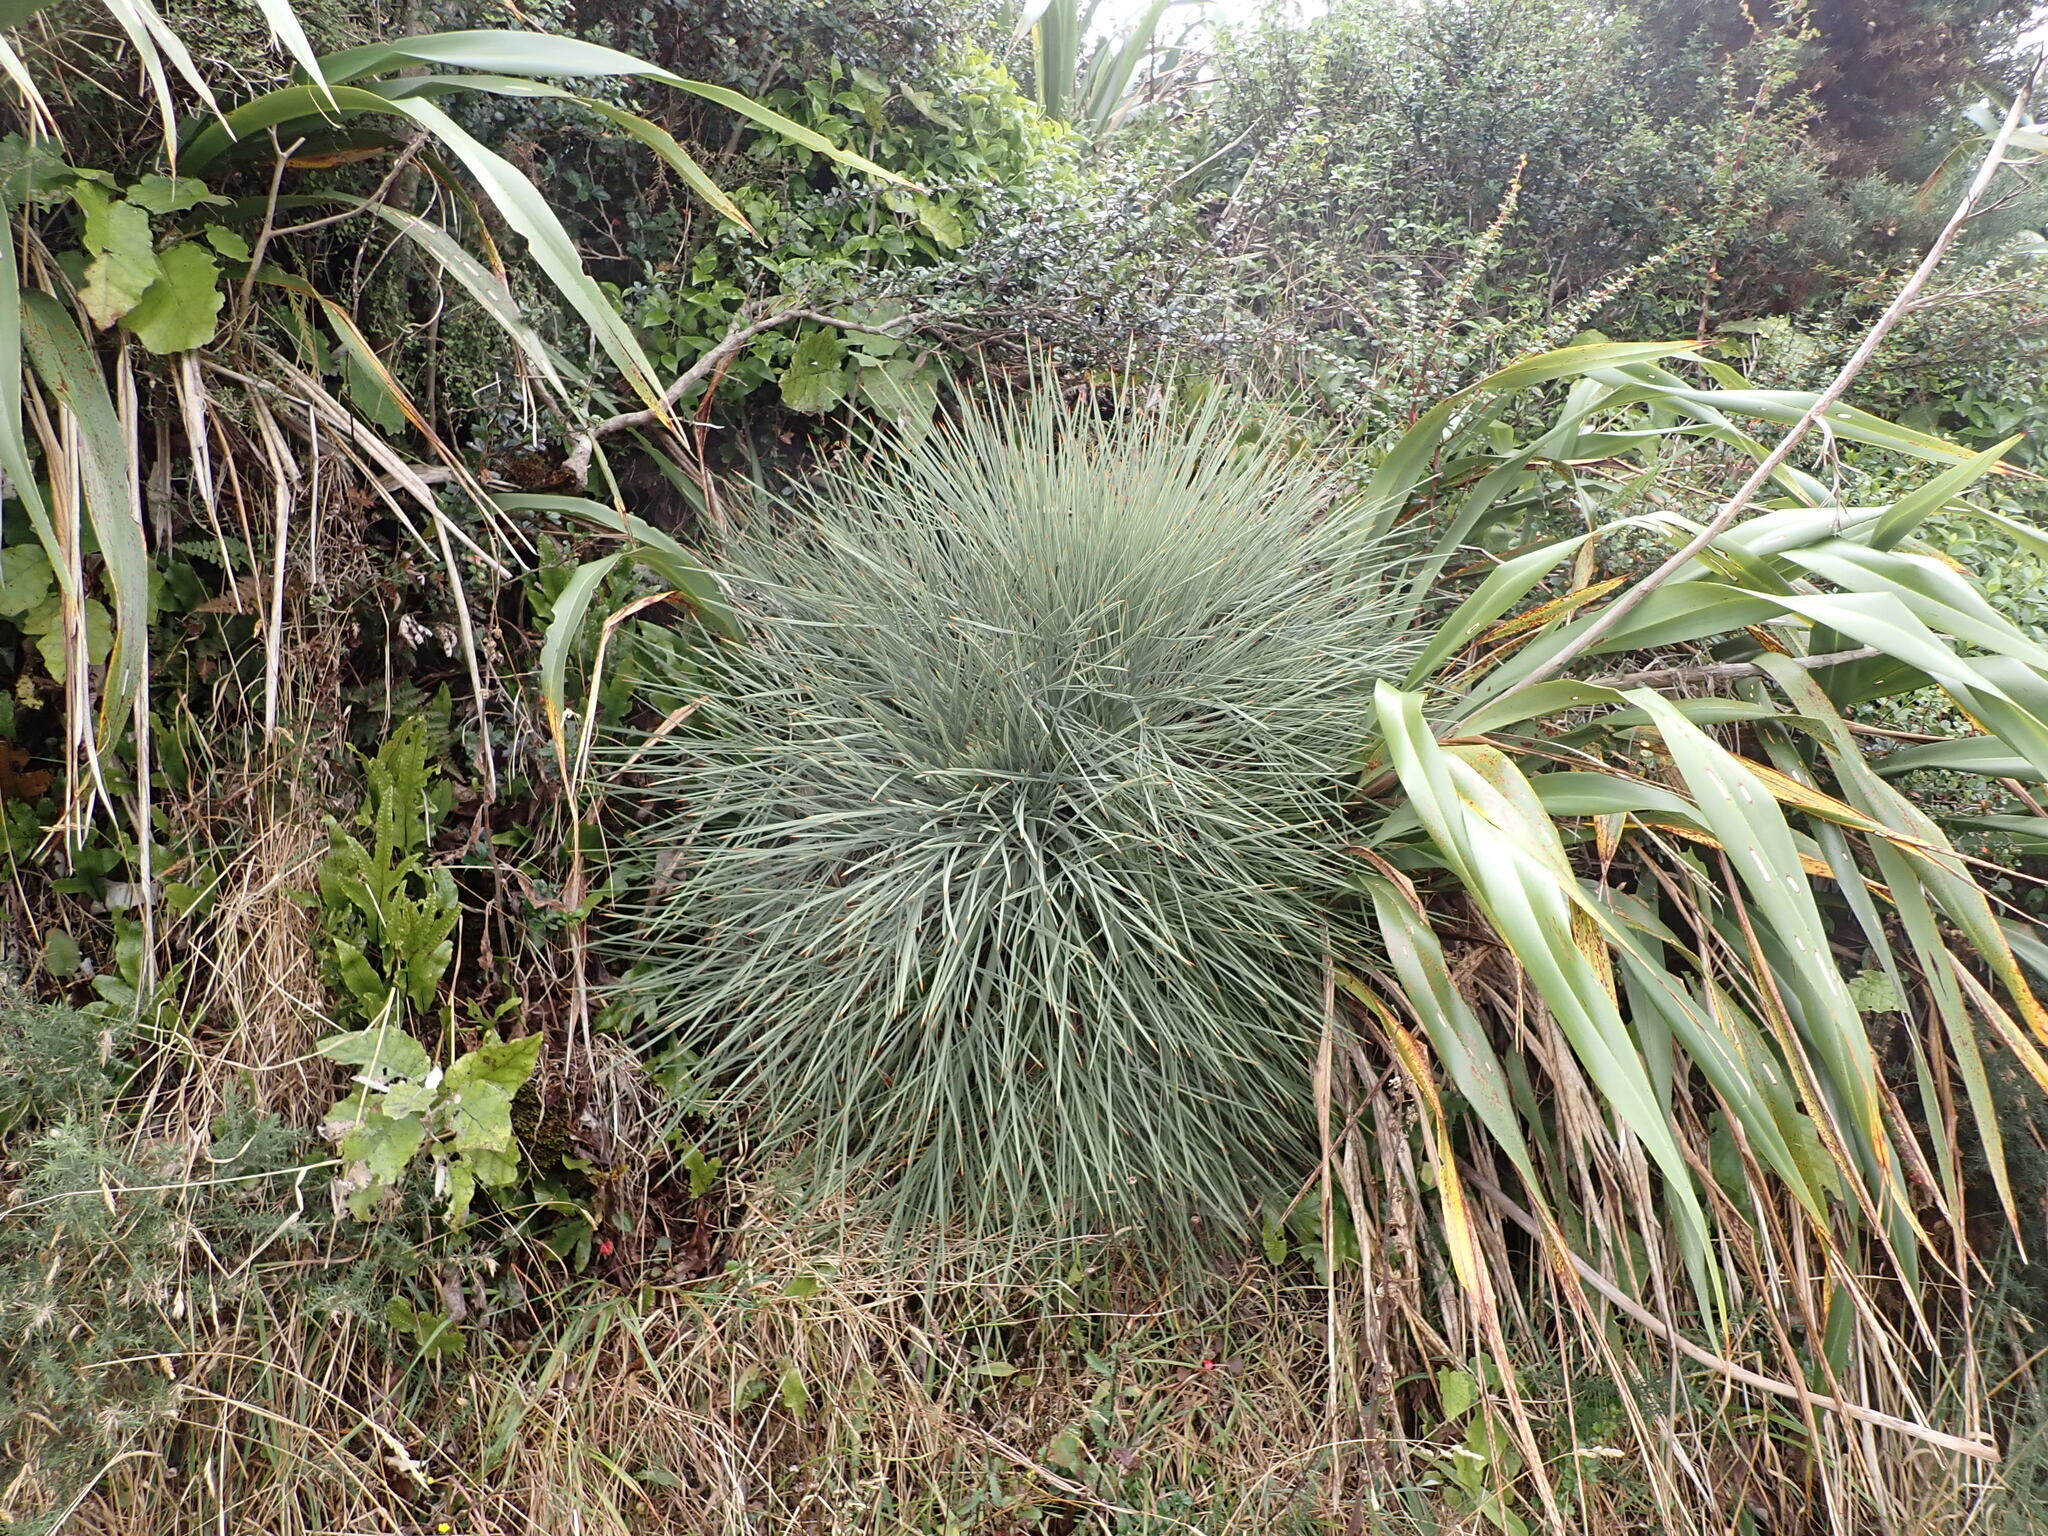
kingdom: Plantae
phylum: Tracheophyta
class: Magnoliopsida
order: Apiales
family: Apiaceae
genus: Aciphylla
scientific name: Aciphylla squarrosa
